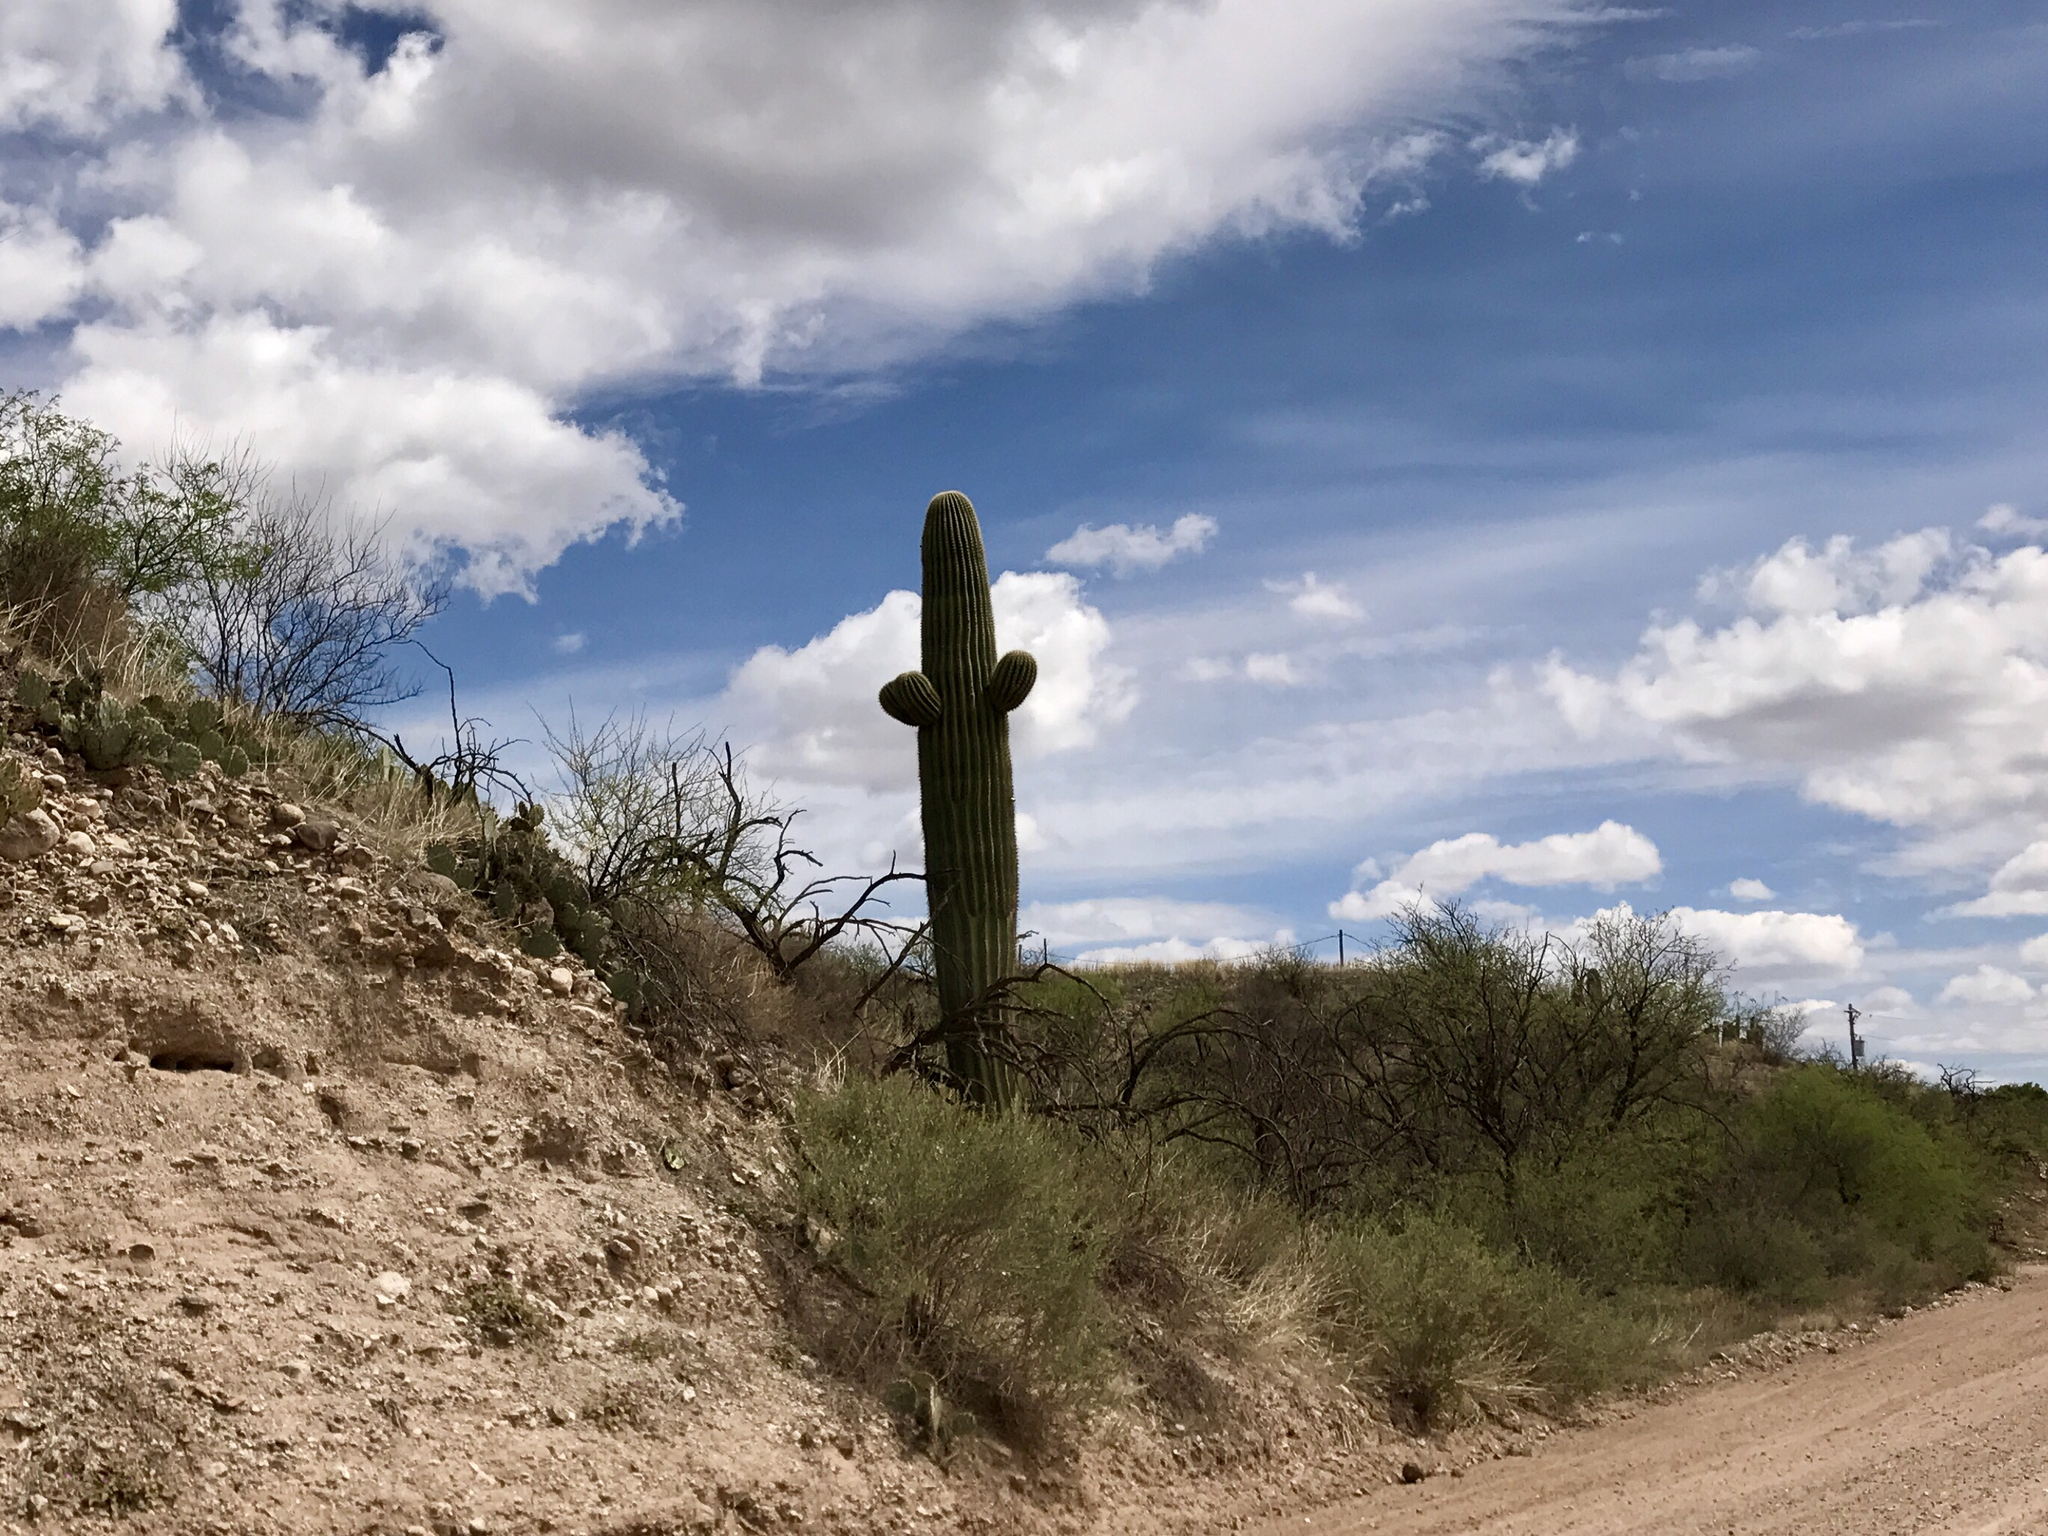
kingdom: Plantae
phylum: Tracheophyta
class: Magnoliopsida
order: Caryophyllales
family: Cactaceae
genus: Carnegiea
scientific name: Carnegiea gigantea
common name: Saguaro
